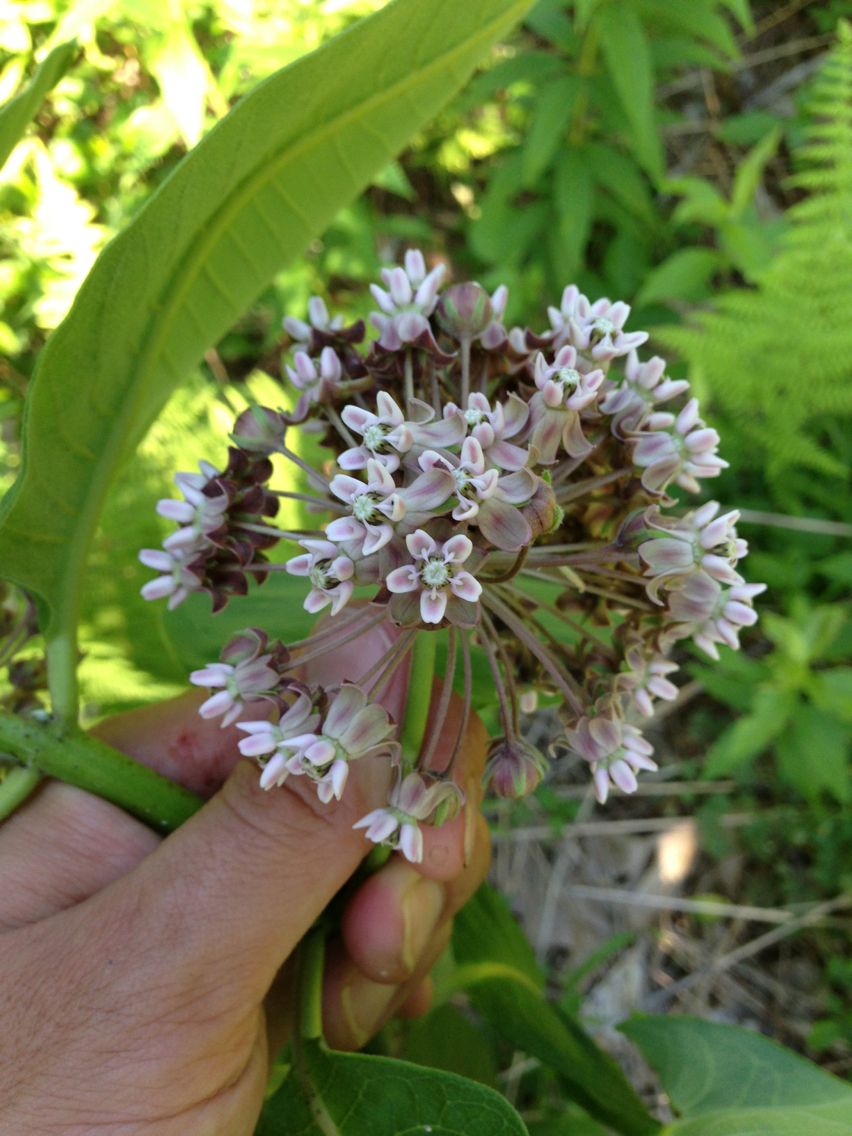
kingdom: Plantae
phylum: Tracheophyta
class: Magnoliopsida
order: Gentianales
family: Apocynaceae
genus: Asclepias
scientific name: Asclepias syriaca
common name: Common milkweed
